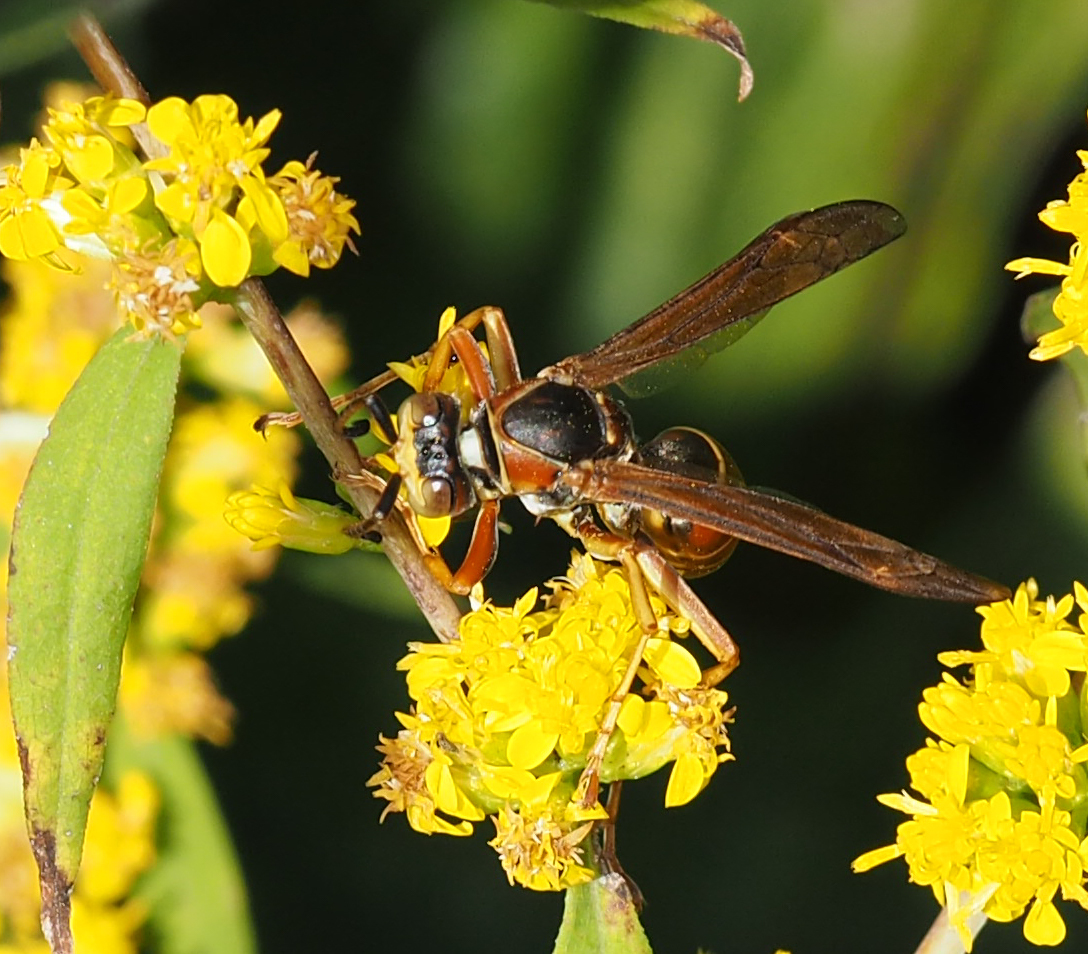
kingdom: Animalia
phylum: Arthropoda
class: Insecta
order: Hymenoptera
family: Eumenidae
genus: Polistes
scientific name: Polistes fuscatus
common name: Dark paper wasp
